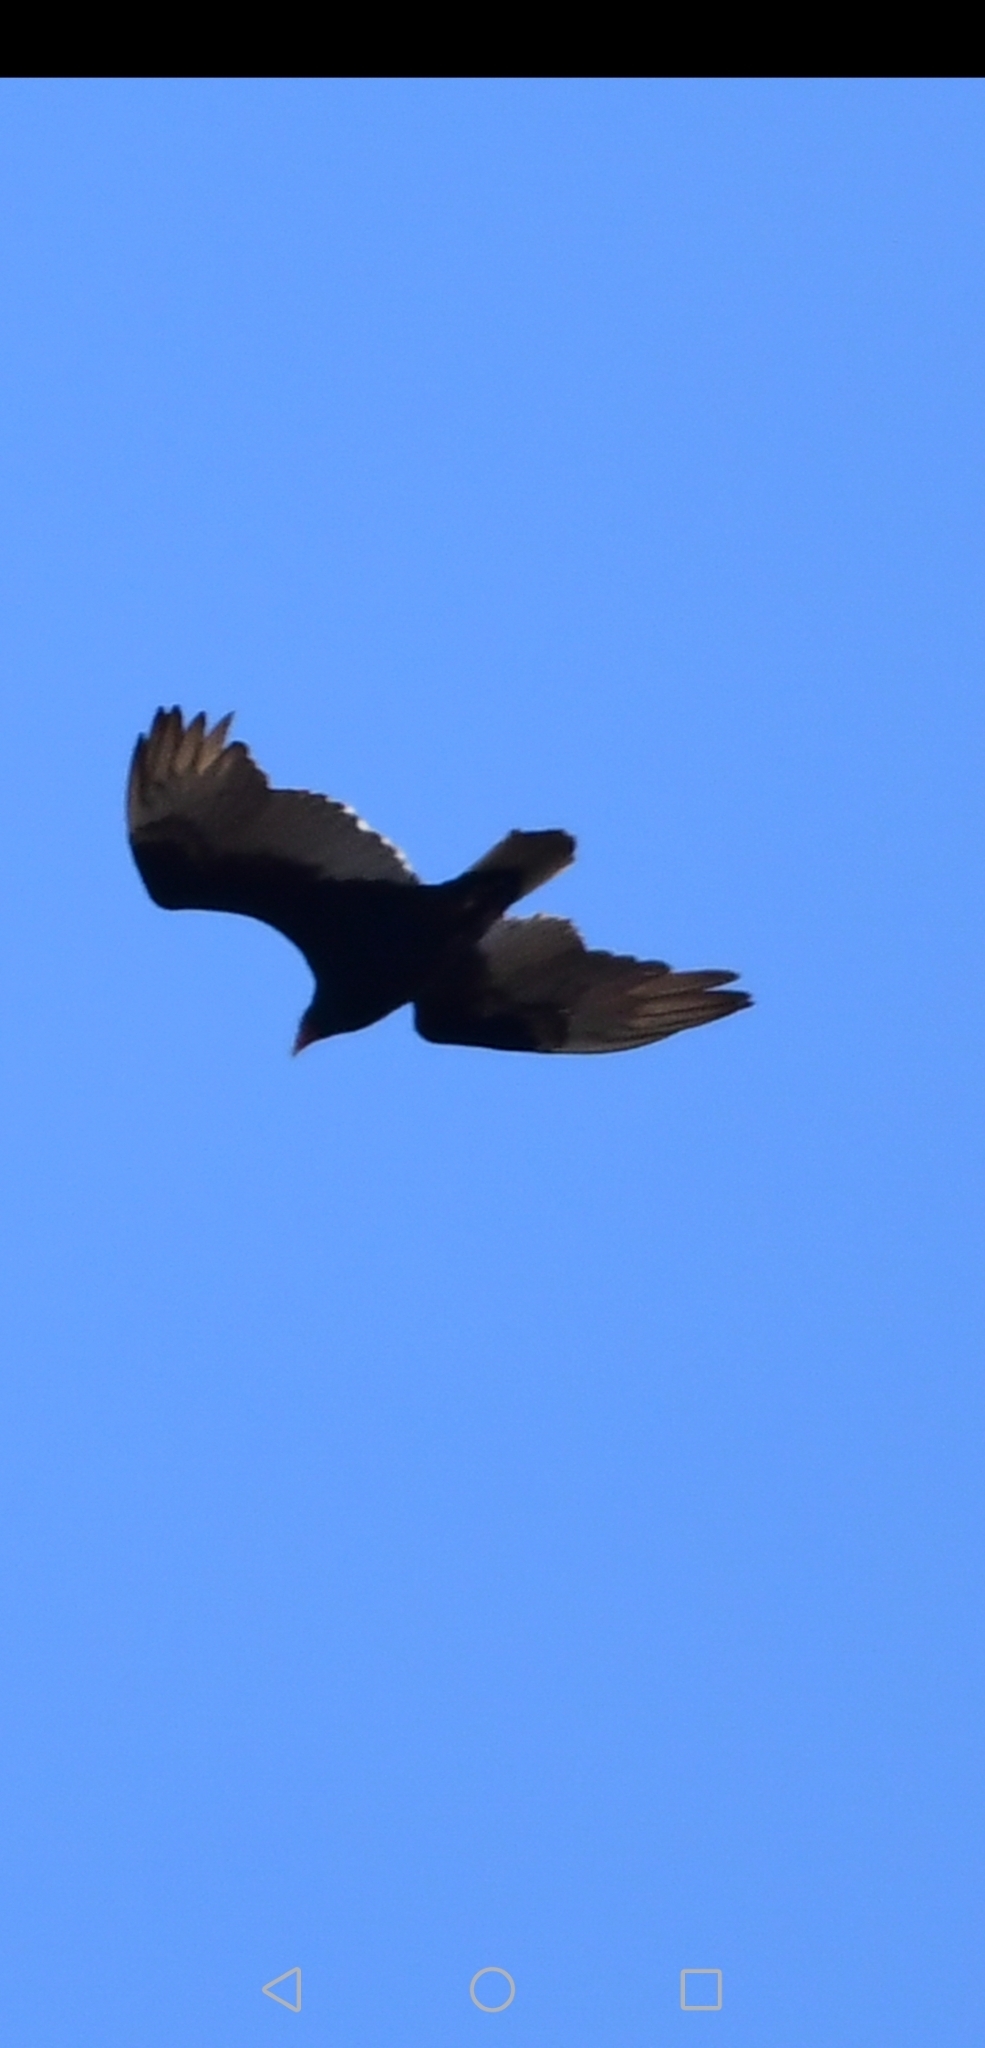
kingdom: Animalia
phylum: Chordata
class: Aves
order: Accipitriformes
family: Cathartidae
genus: Cathartes
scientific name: Cathartes aura
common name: Turkey vulture
